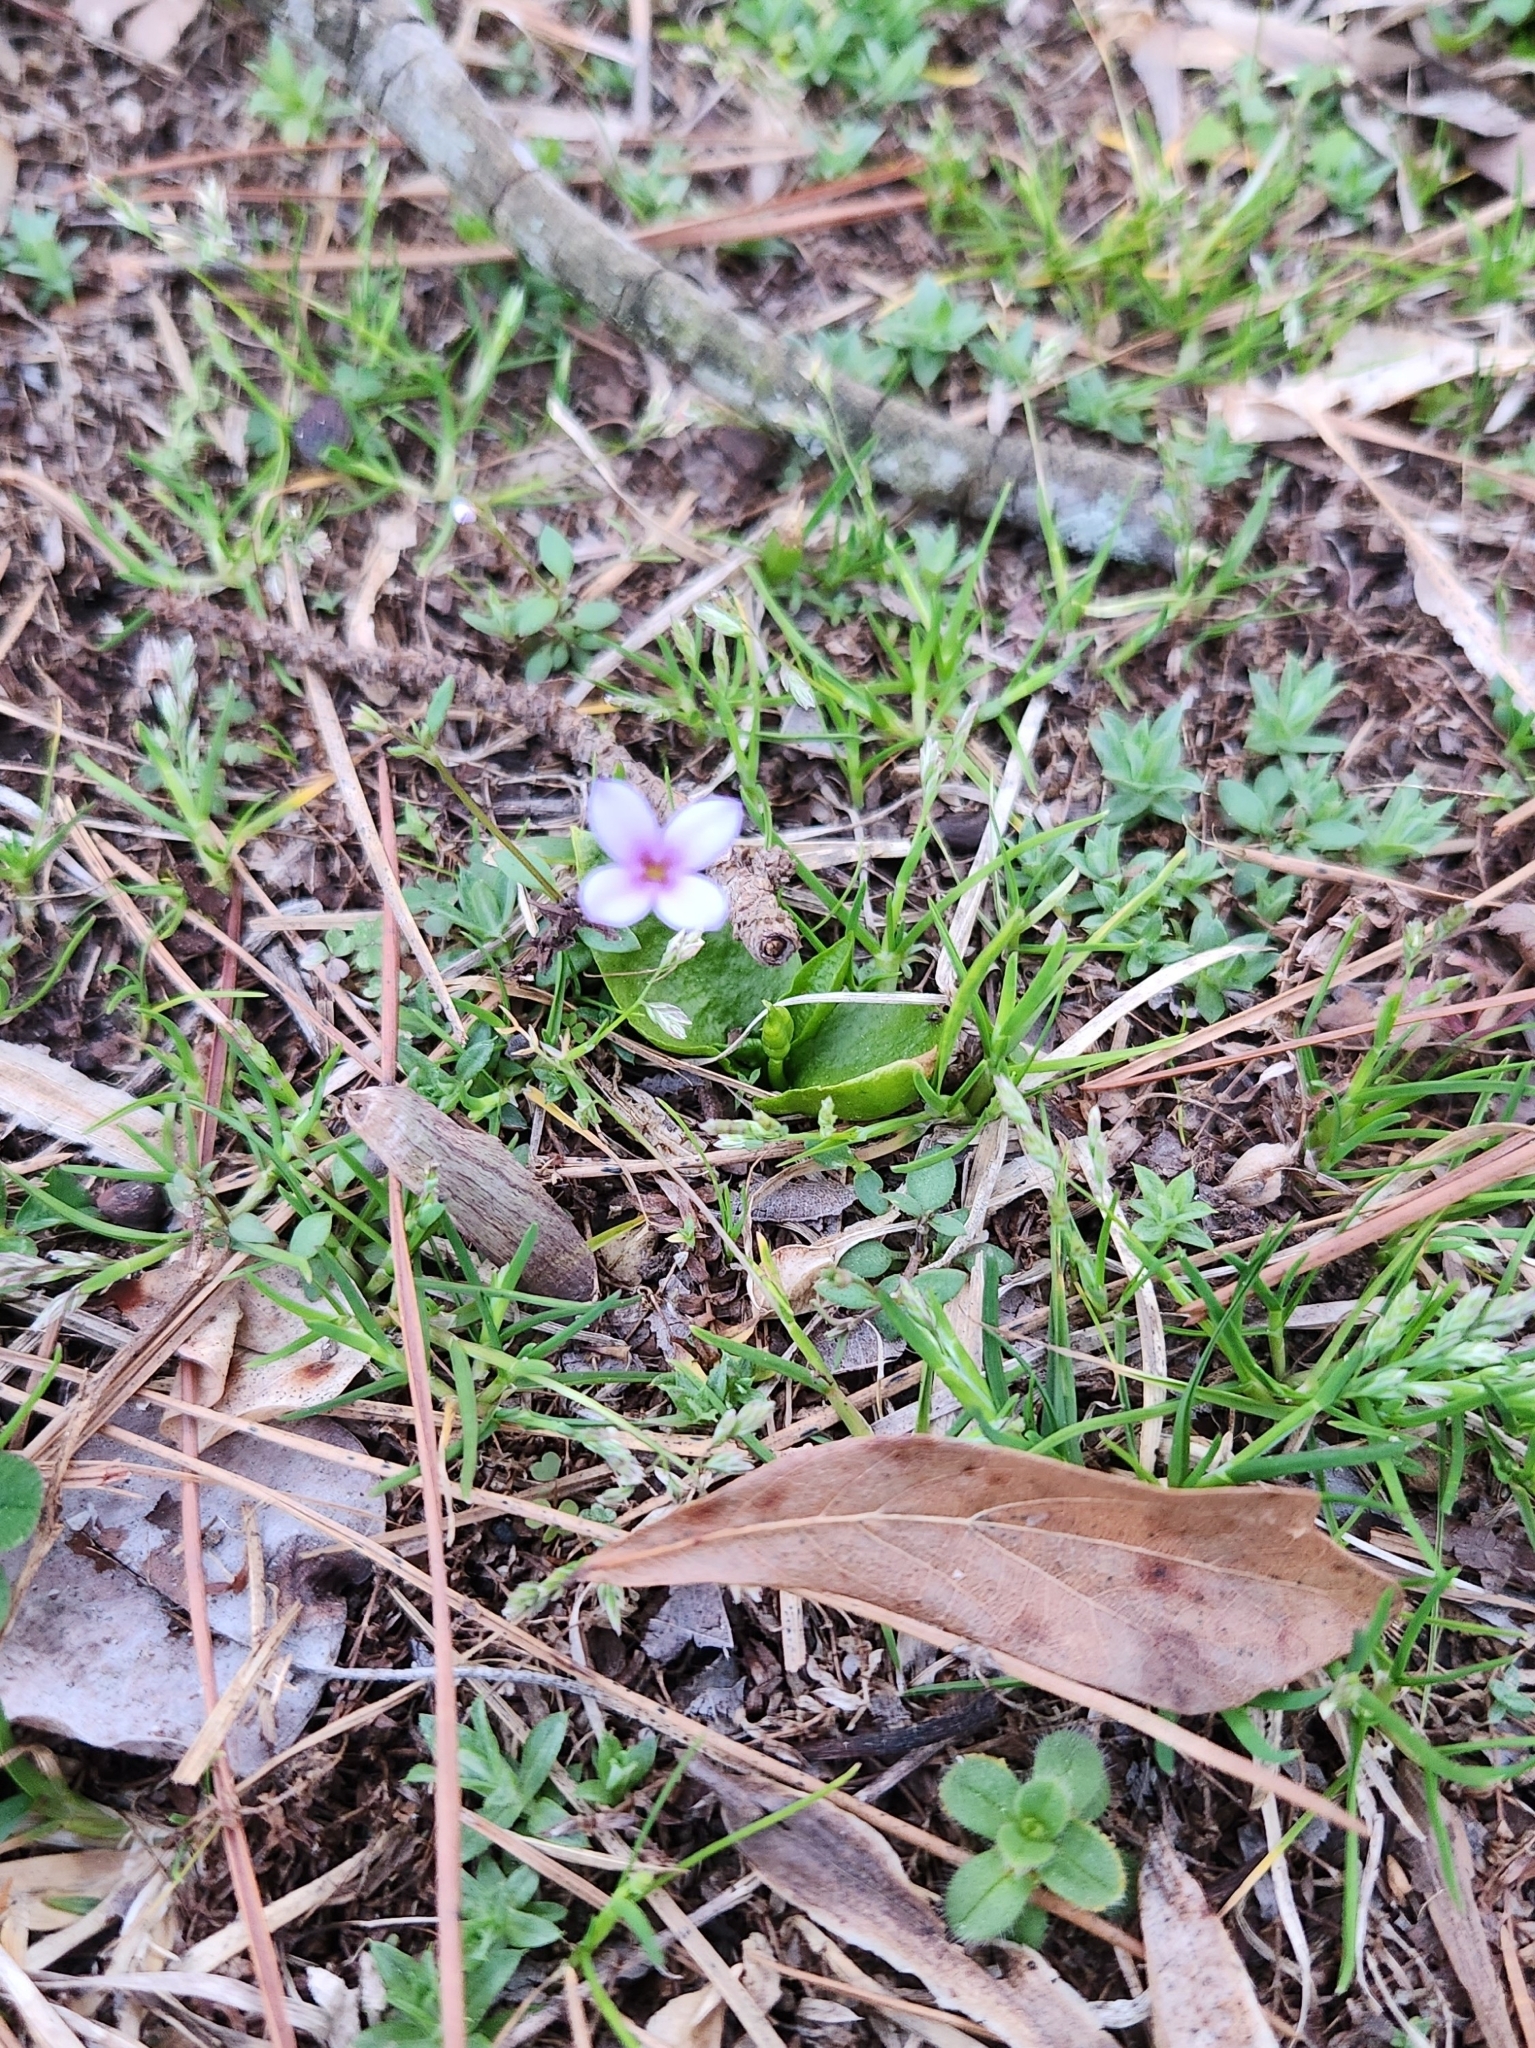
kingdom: Plantae
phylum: Tracheophyta
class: Magnoliopsida
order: Gentianales
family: Rubiaceae
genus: Houstonia
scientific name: Houstonia pusilla
